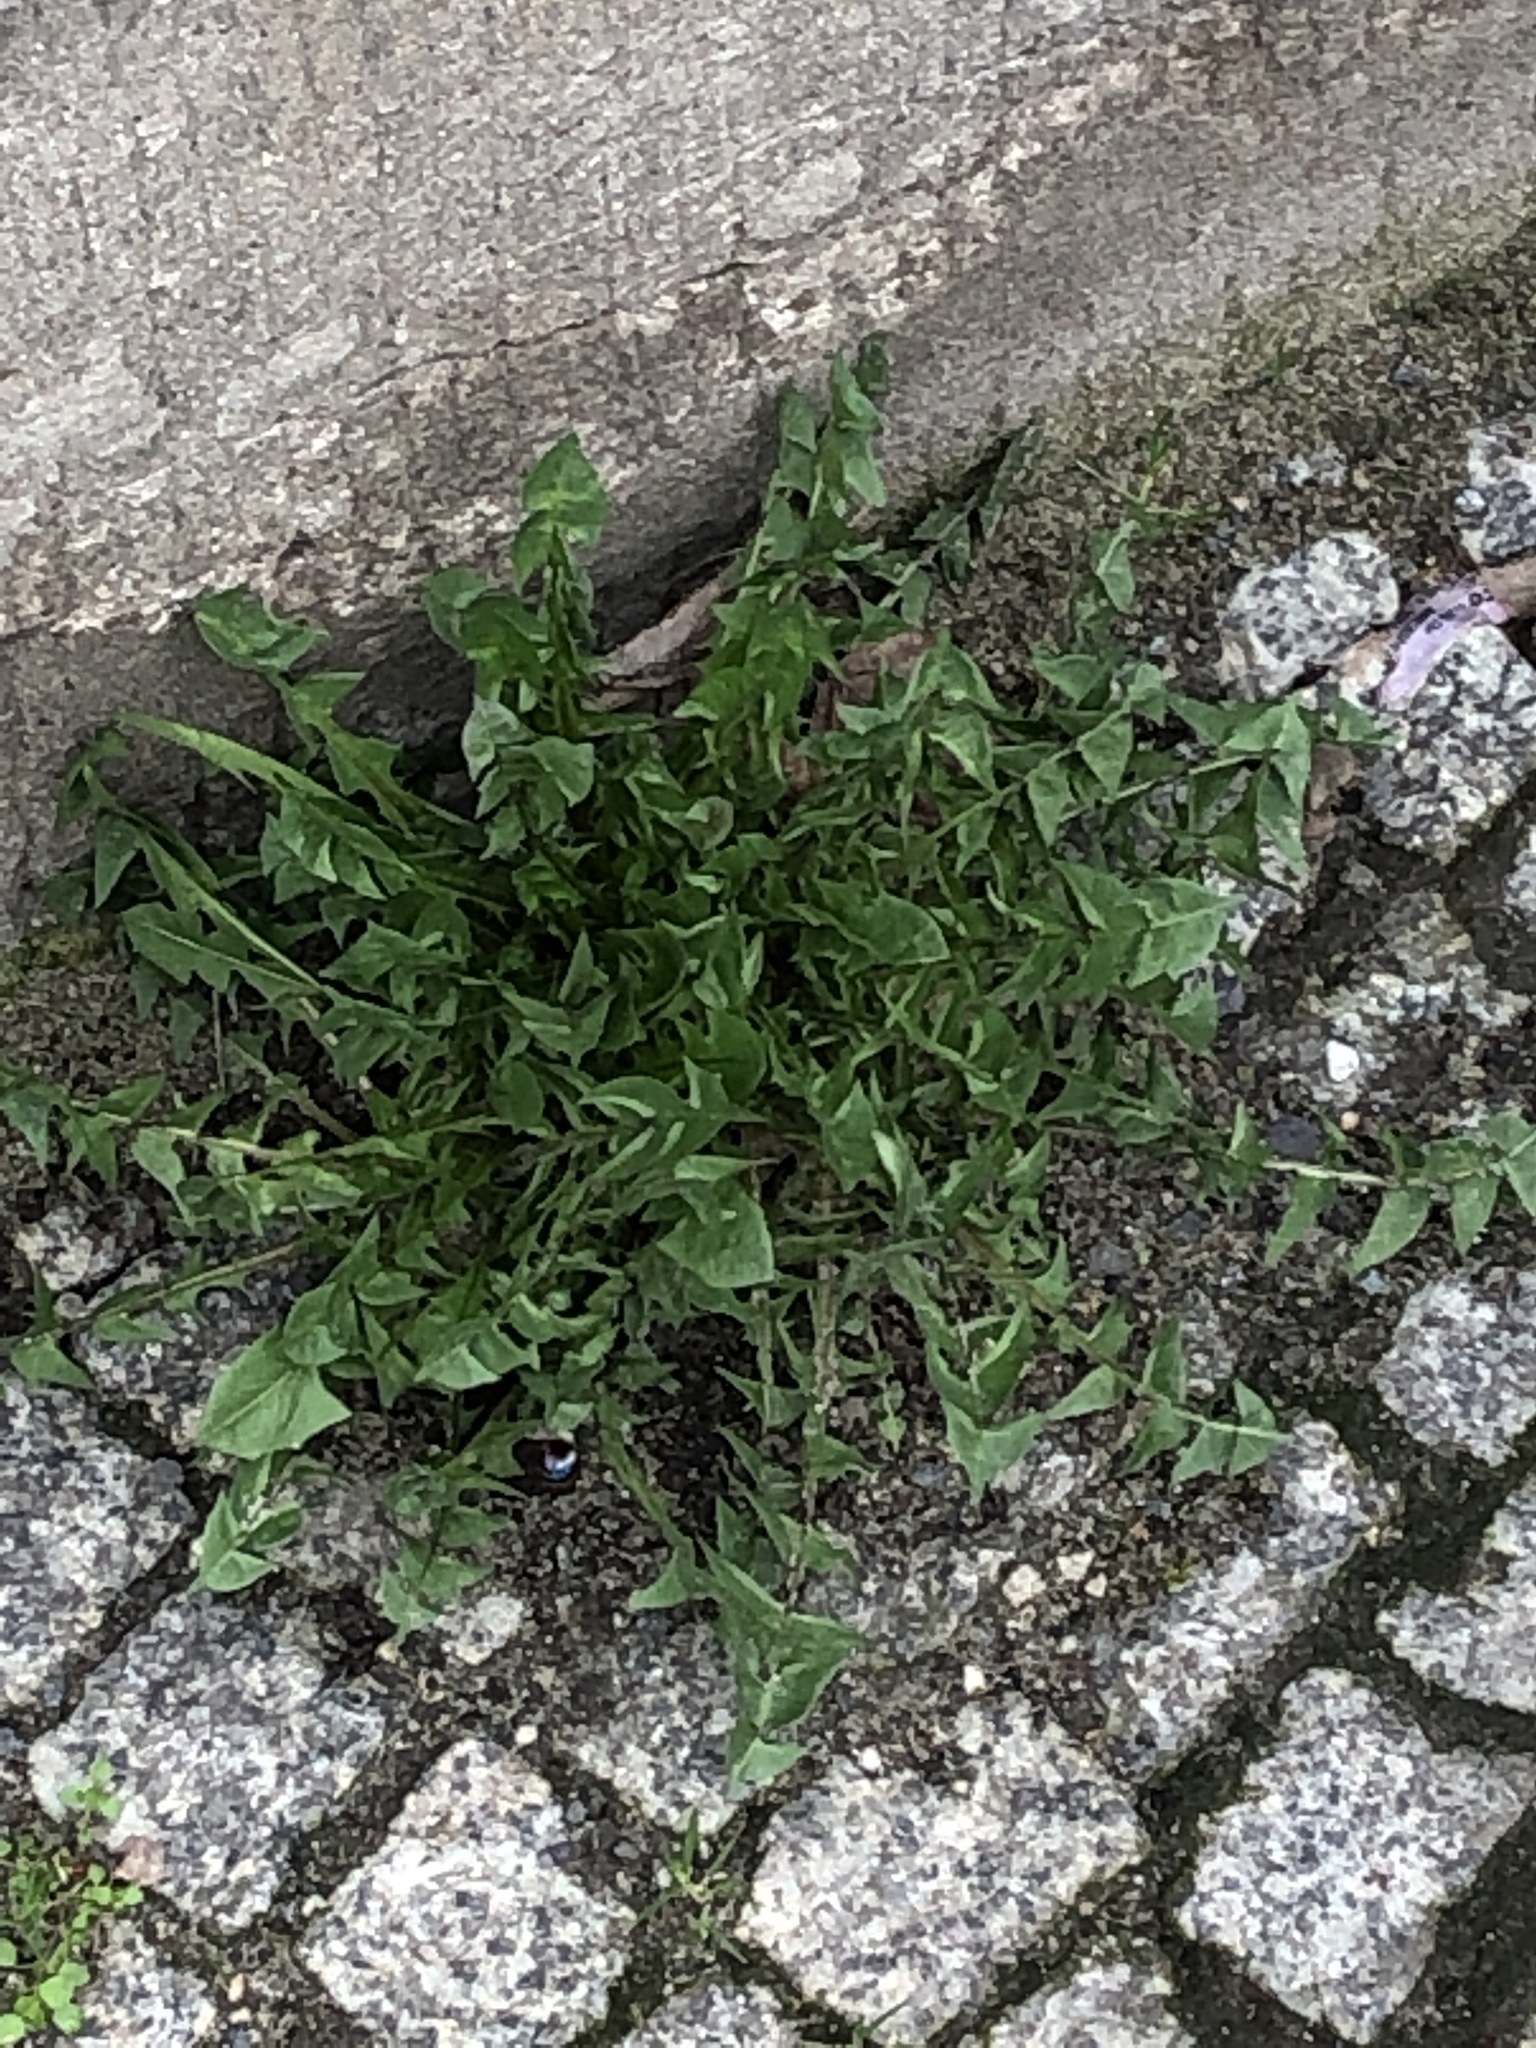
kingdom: Plantae
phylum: Tracheophyta
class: Magnoliopsida
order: Asterales
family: Asteraceae
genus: Taraxacum
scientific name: Taraxacum officinale
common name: Common dandelion
